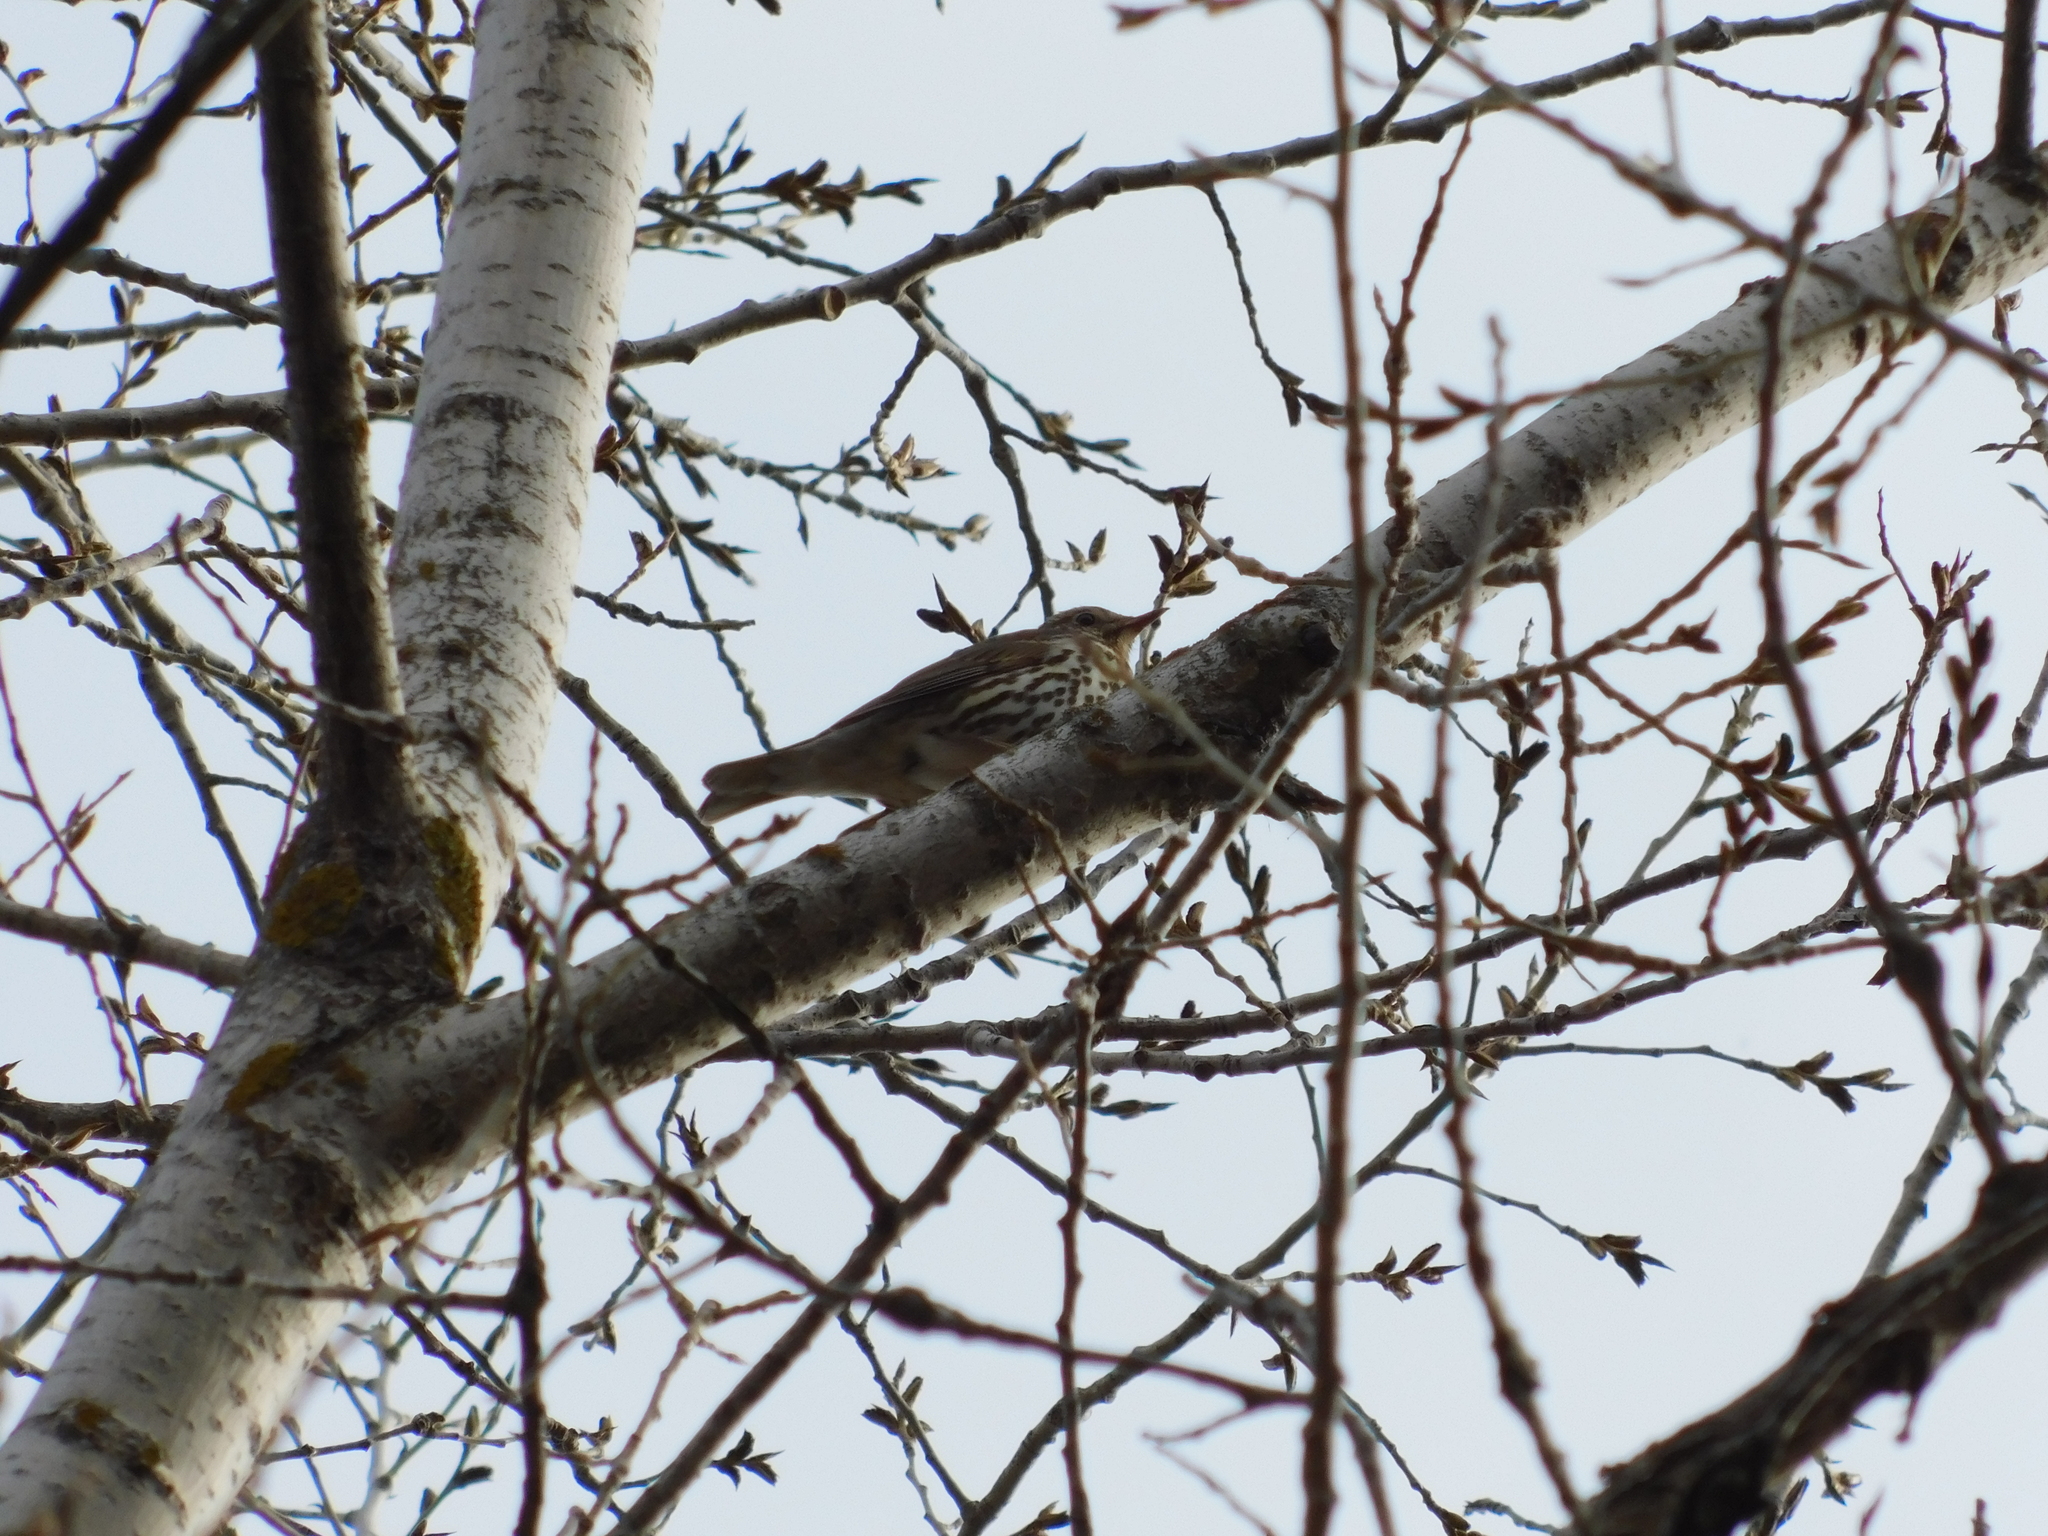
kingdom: Animalia
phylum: Chordata
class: Aves
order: Passeriformes
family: Turdidae
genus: Turdus
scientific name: Turdus philomelos
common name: Song thrush
